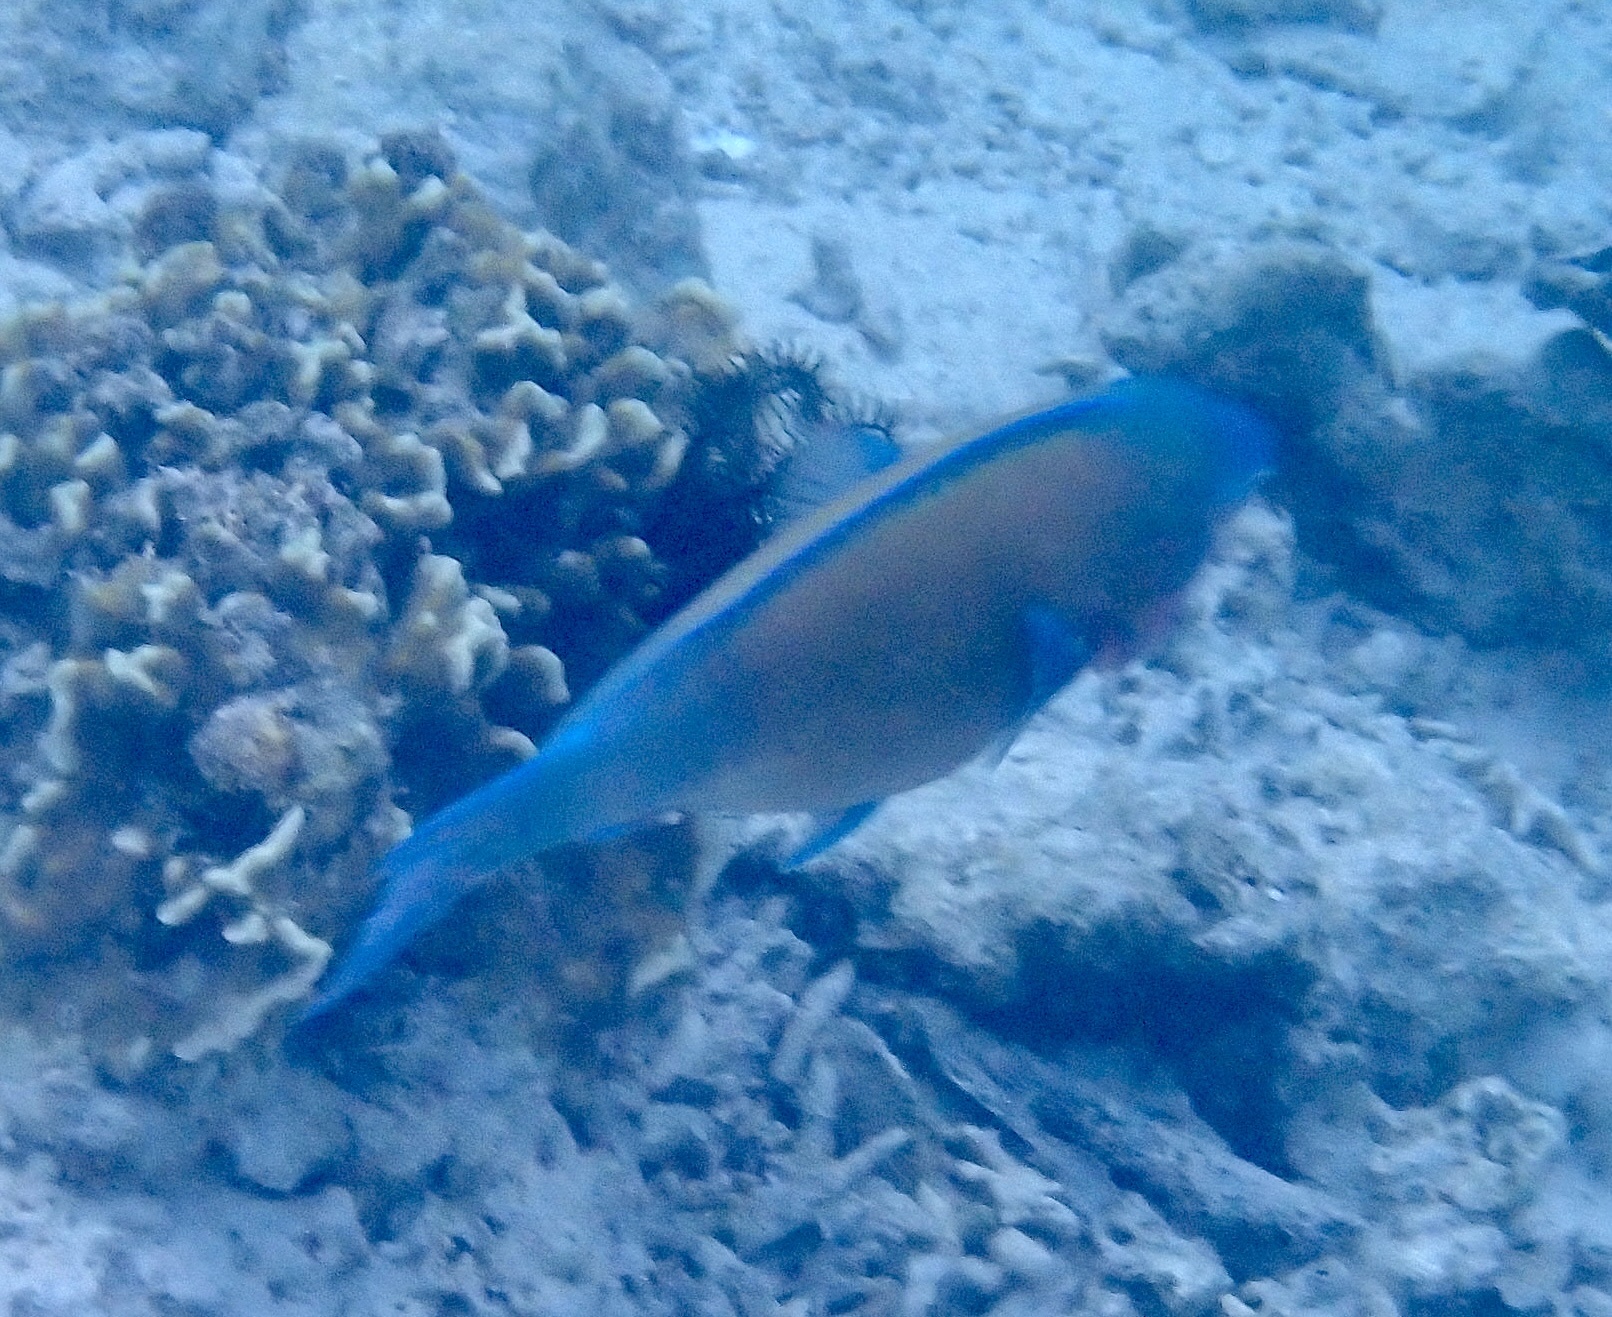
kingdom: Animalia
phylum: Chordata
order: Perciformes
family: Scaridae
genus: Scarus
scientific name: Scarus psittacus
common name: Palenose parrotfish
